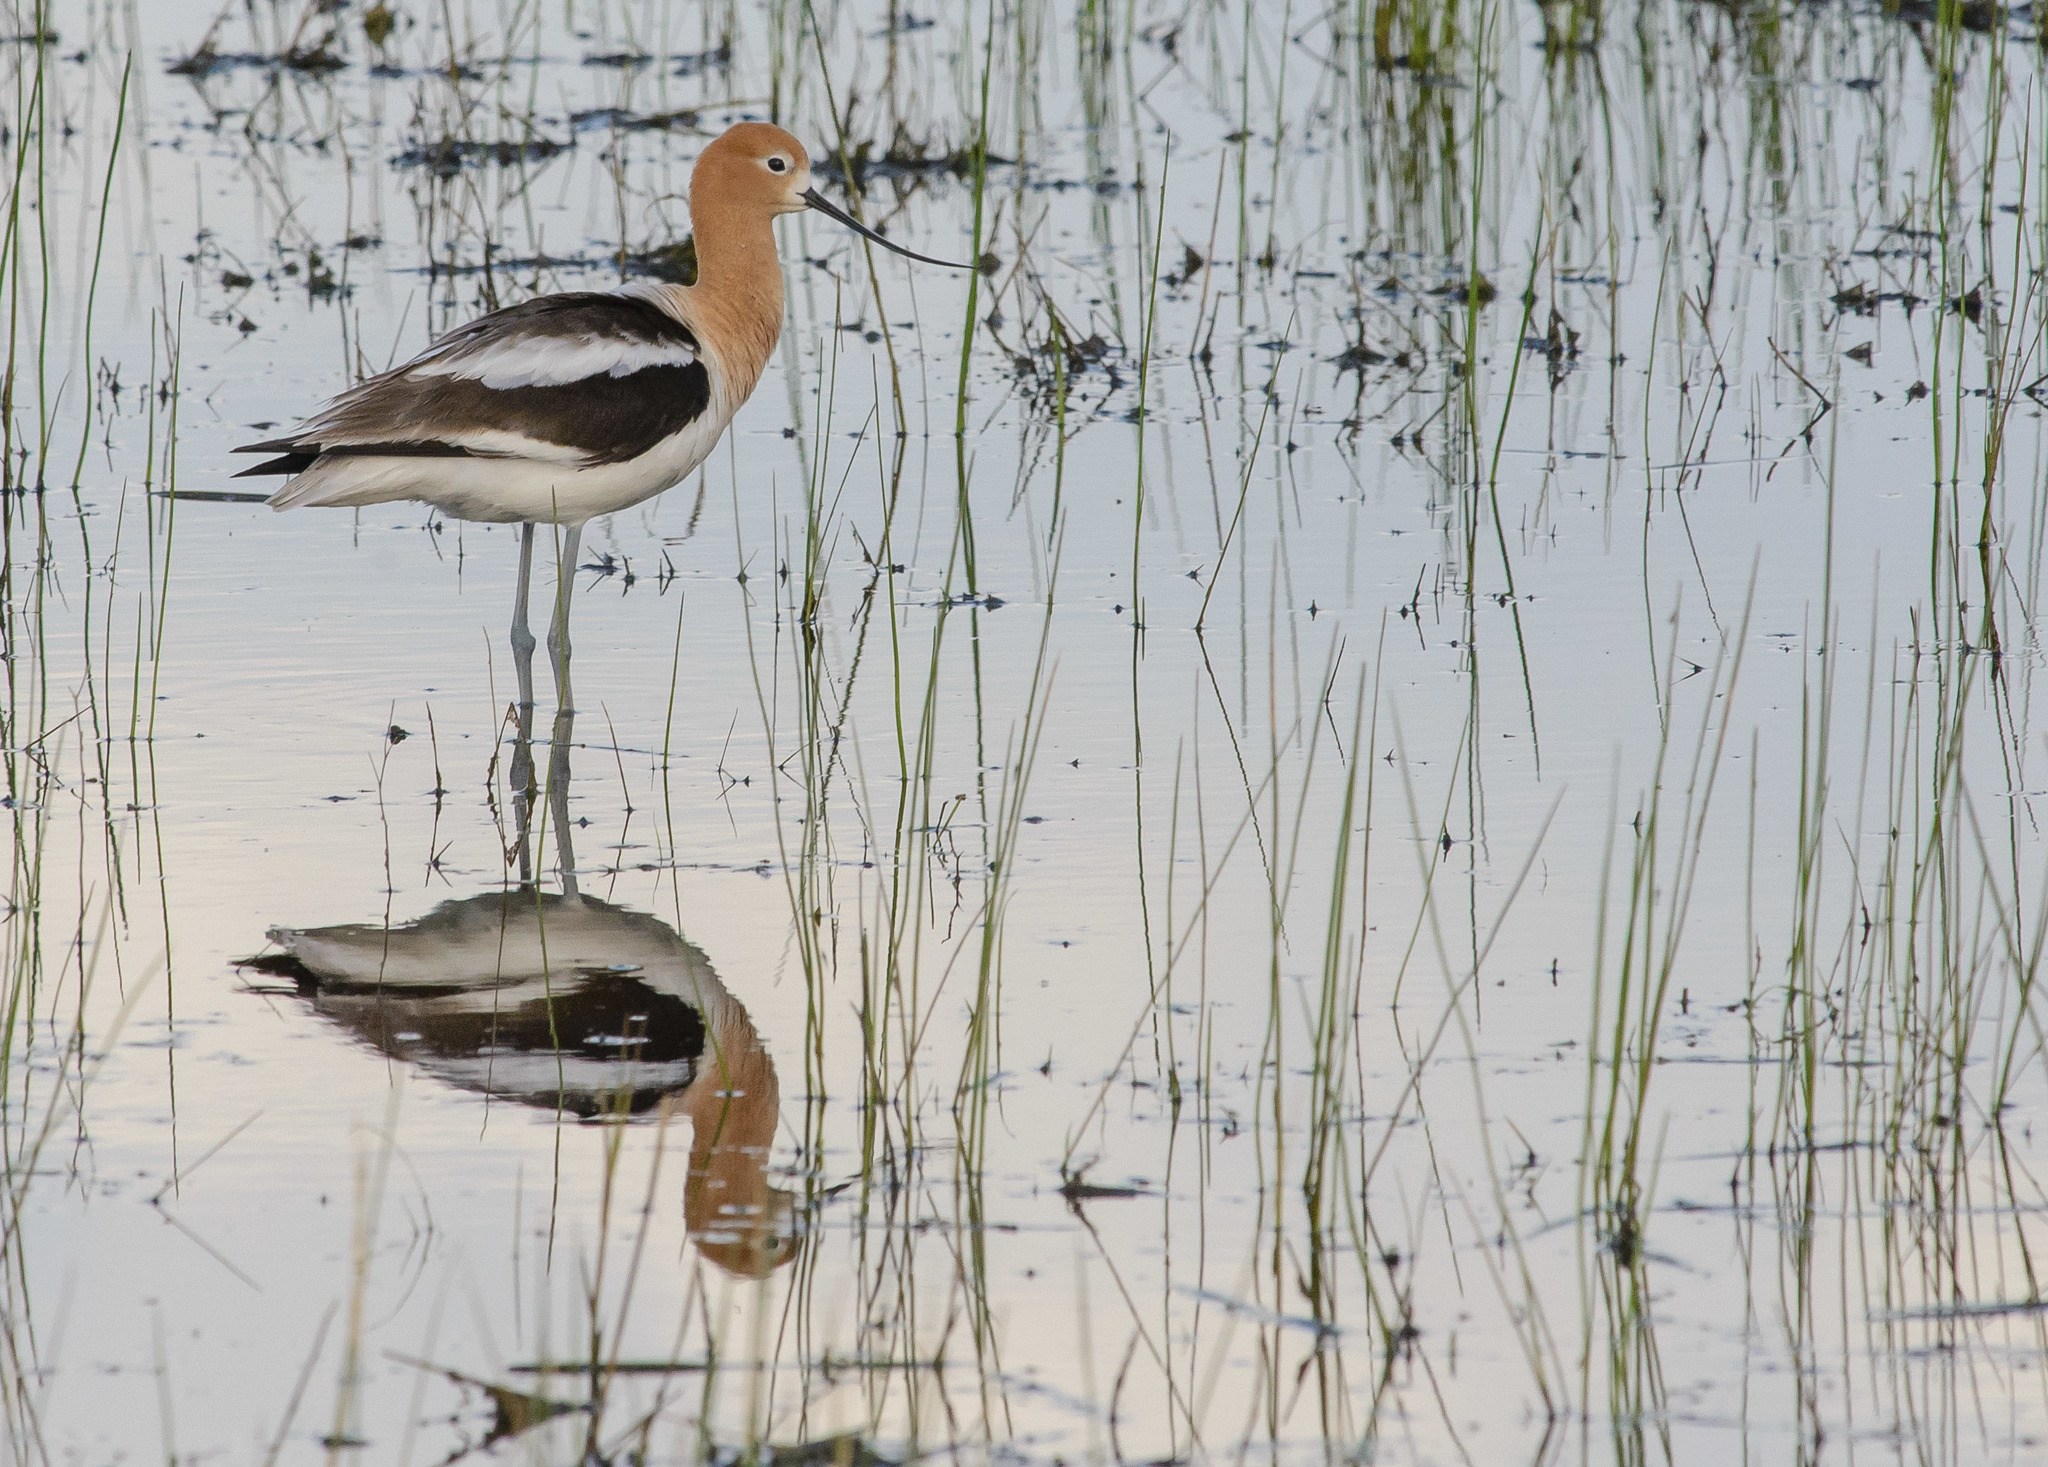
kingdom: Animalia
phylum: Chordata
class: Aves
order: Charadriiformes
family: Recurvirostridae
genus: Recurvirostra
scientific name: Recurvirostra americana
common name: American avocet
